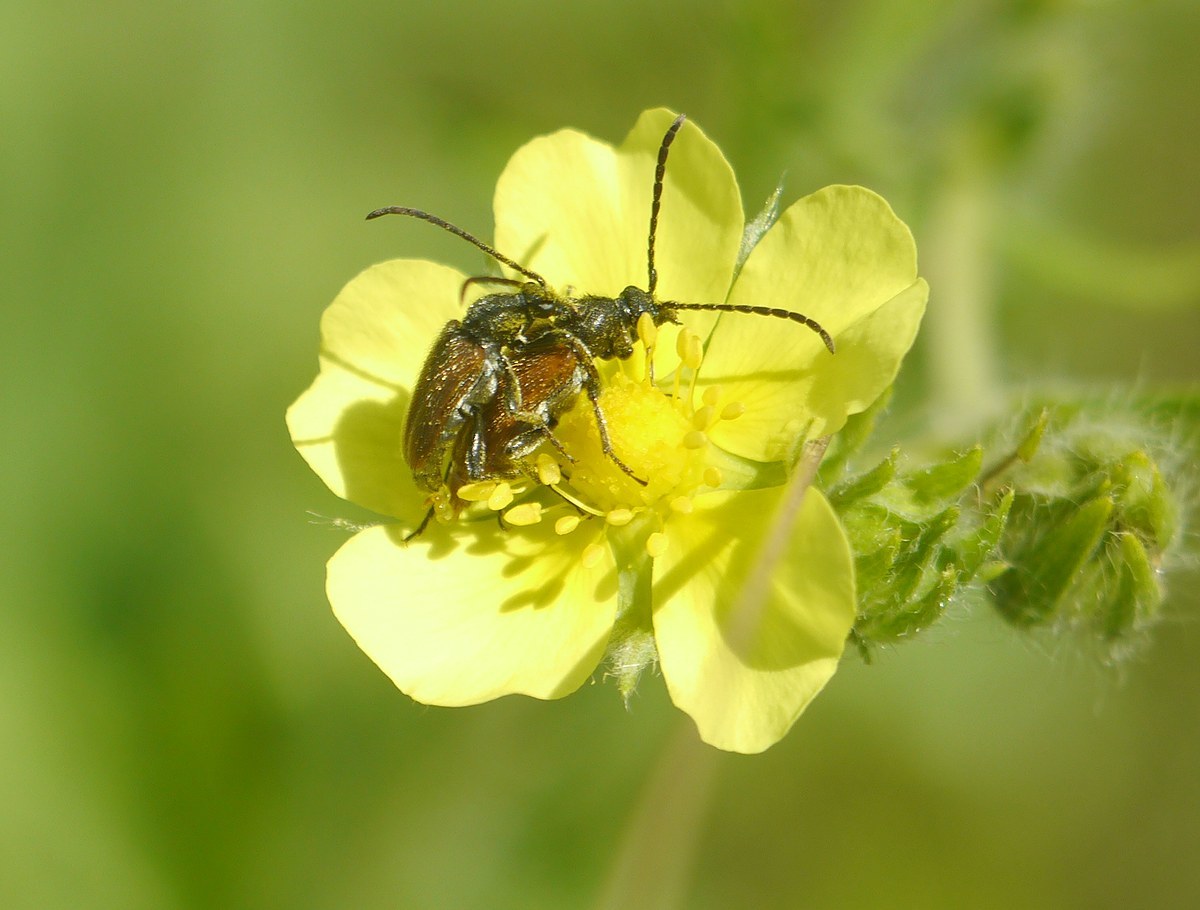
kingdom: Animalia
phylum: Arthropoda
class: Insecta
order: Coleoptera
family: Cerambycidae
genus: Pseudovadonia
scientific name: Pseudovadonia livida
